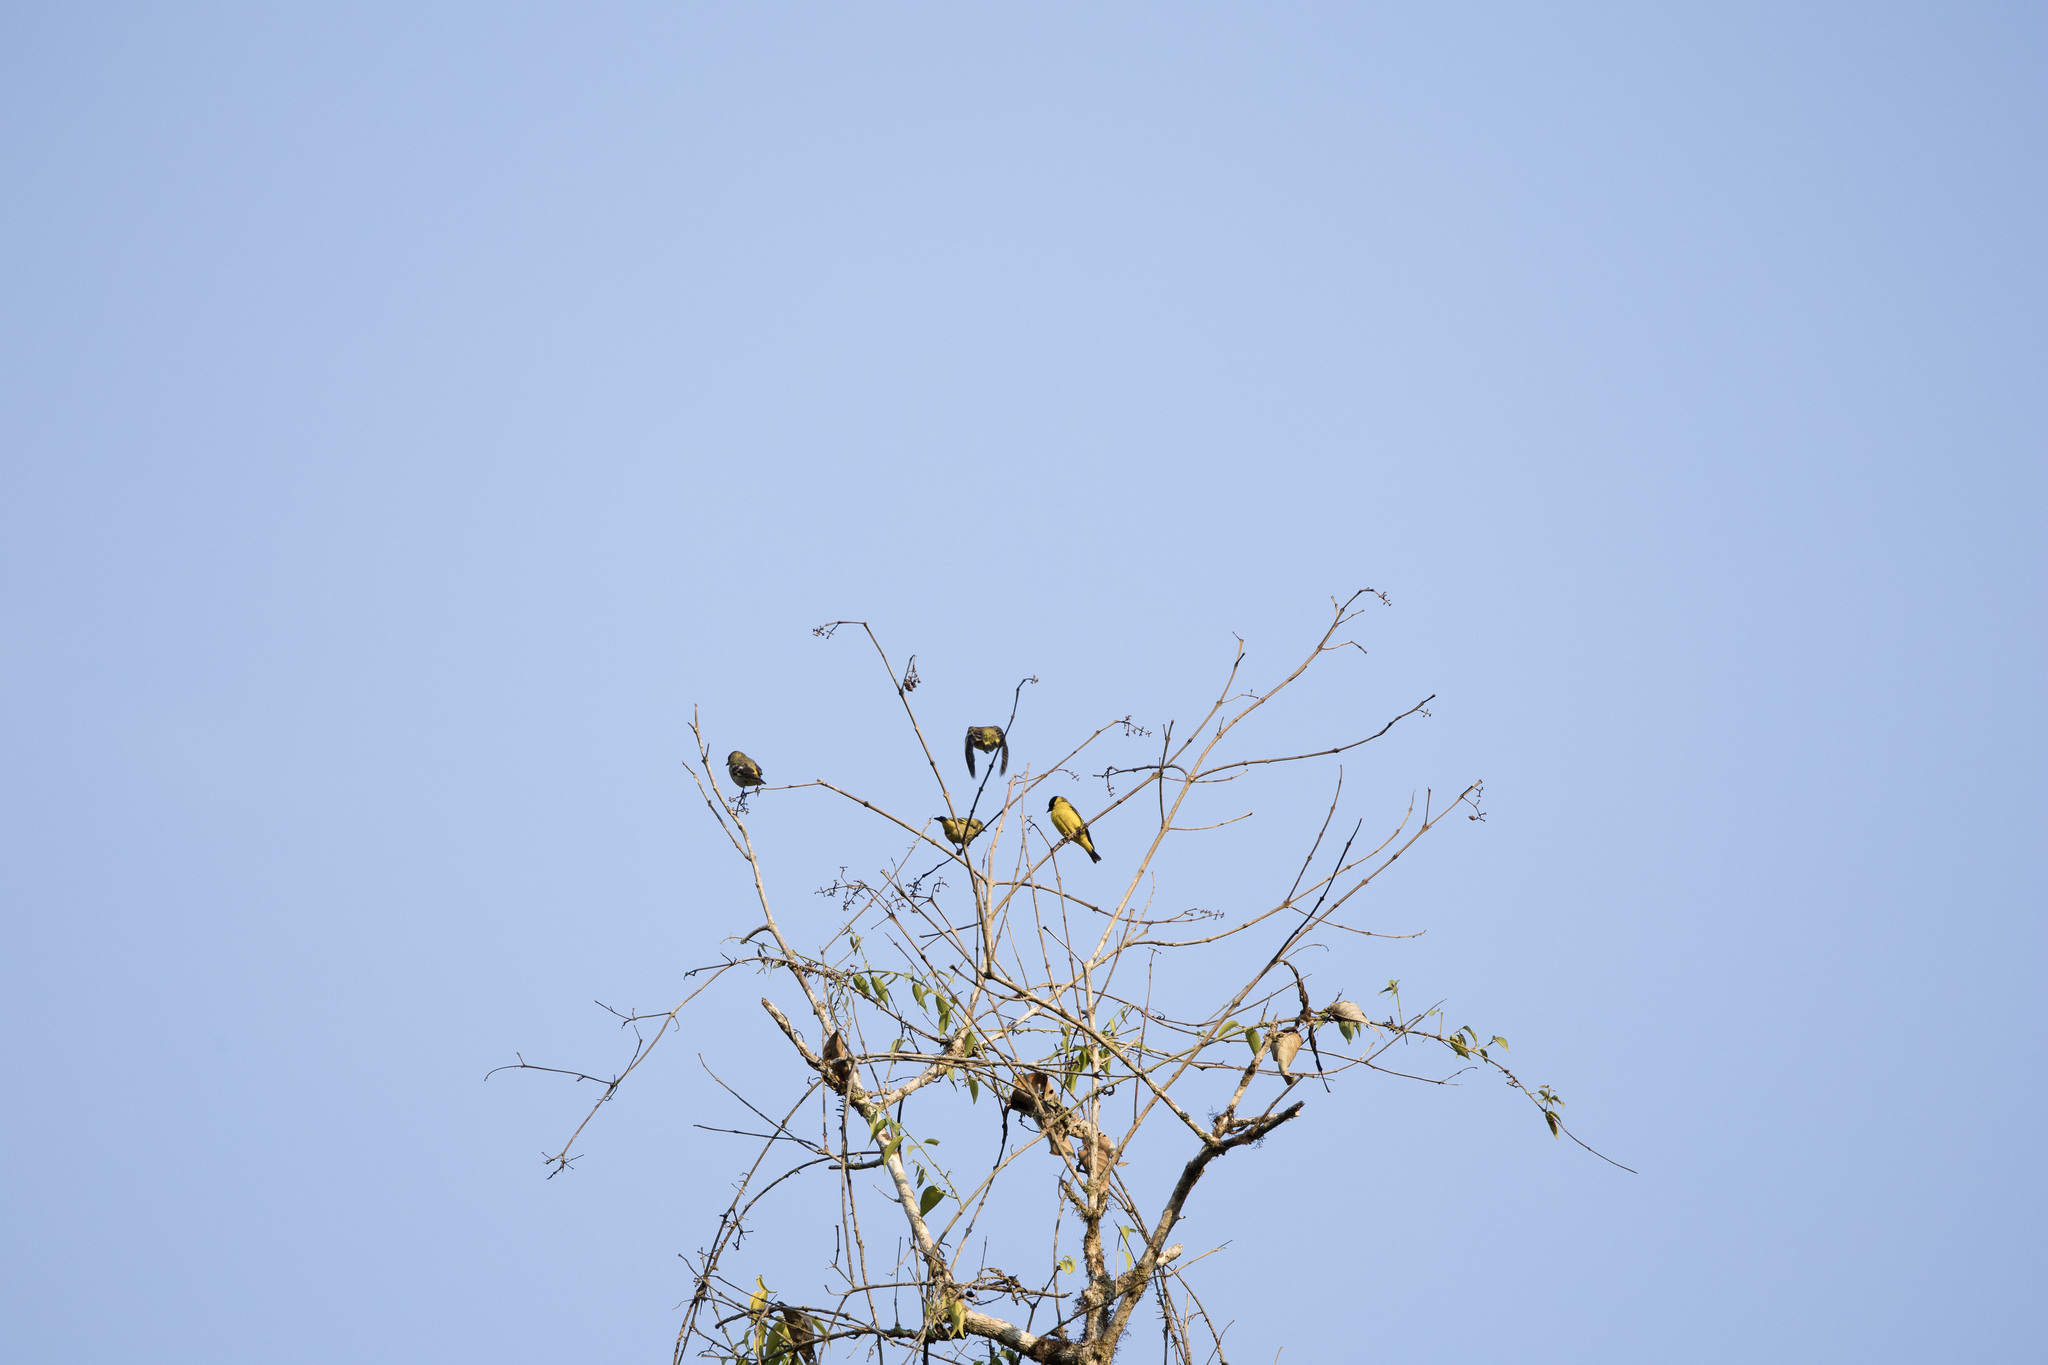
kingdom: Animalia
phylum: Chordata
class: Aves
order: Passeriformes
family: Fringillidae
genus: Spinus
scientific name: Spinus magellanicus
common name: Hooded siskin
